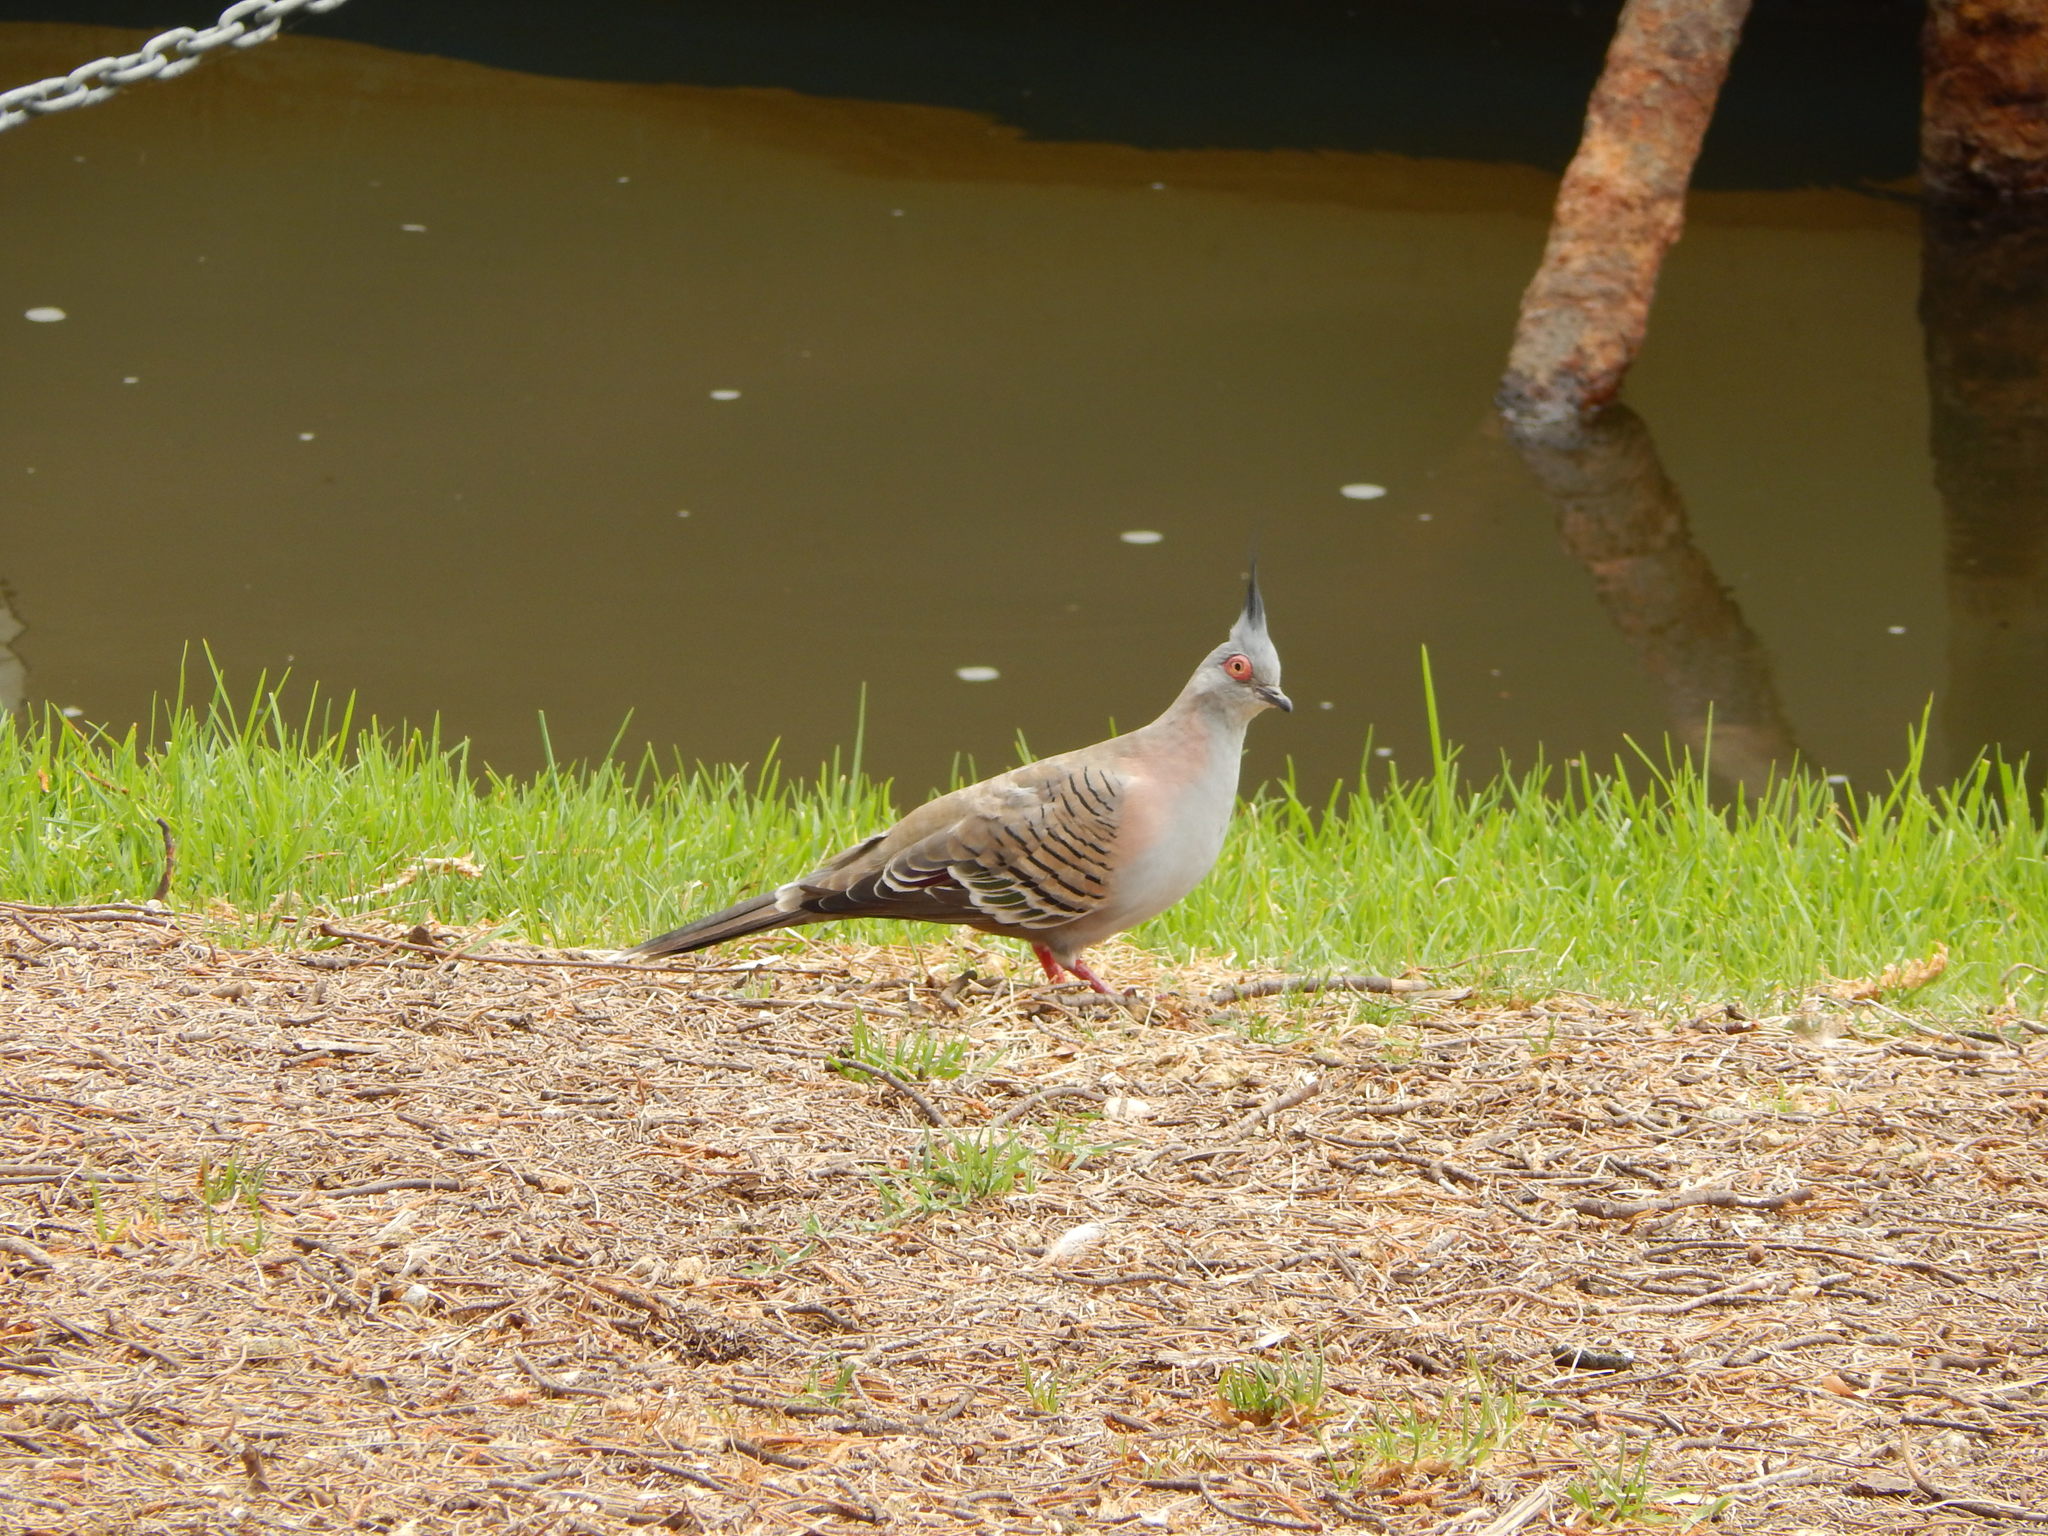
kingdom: Animalia
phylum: Chordata
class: Aves
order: Columbiformes
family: Columbidae
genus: Ocyphaps
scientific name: Ocyphaps lophotes
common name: Crested pigeon
